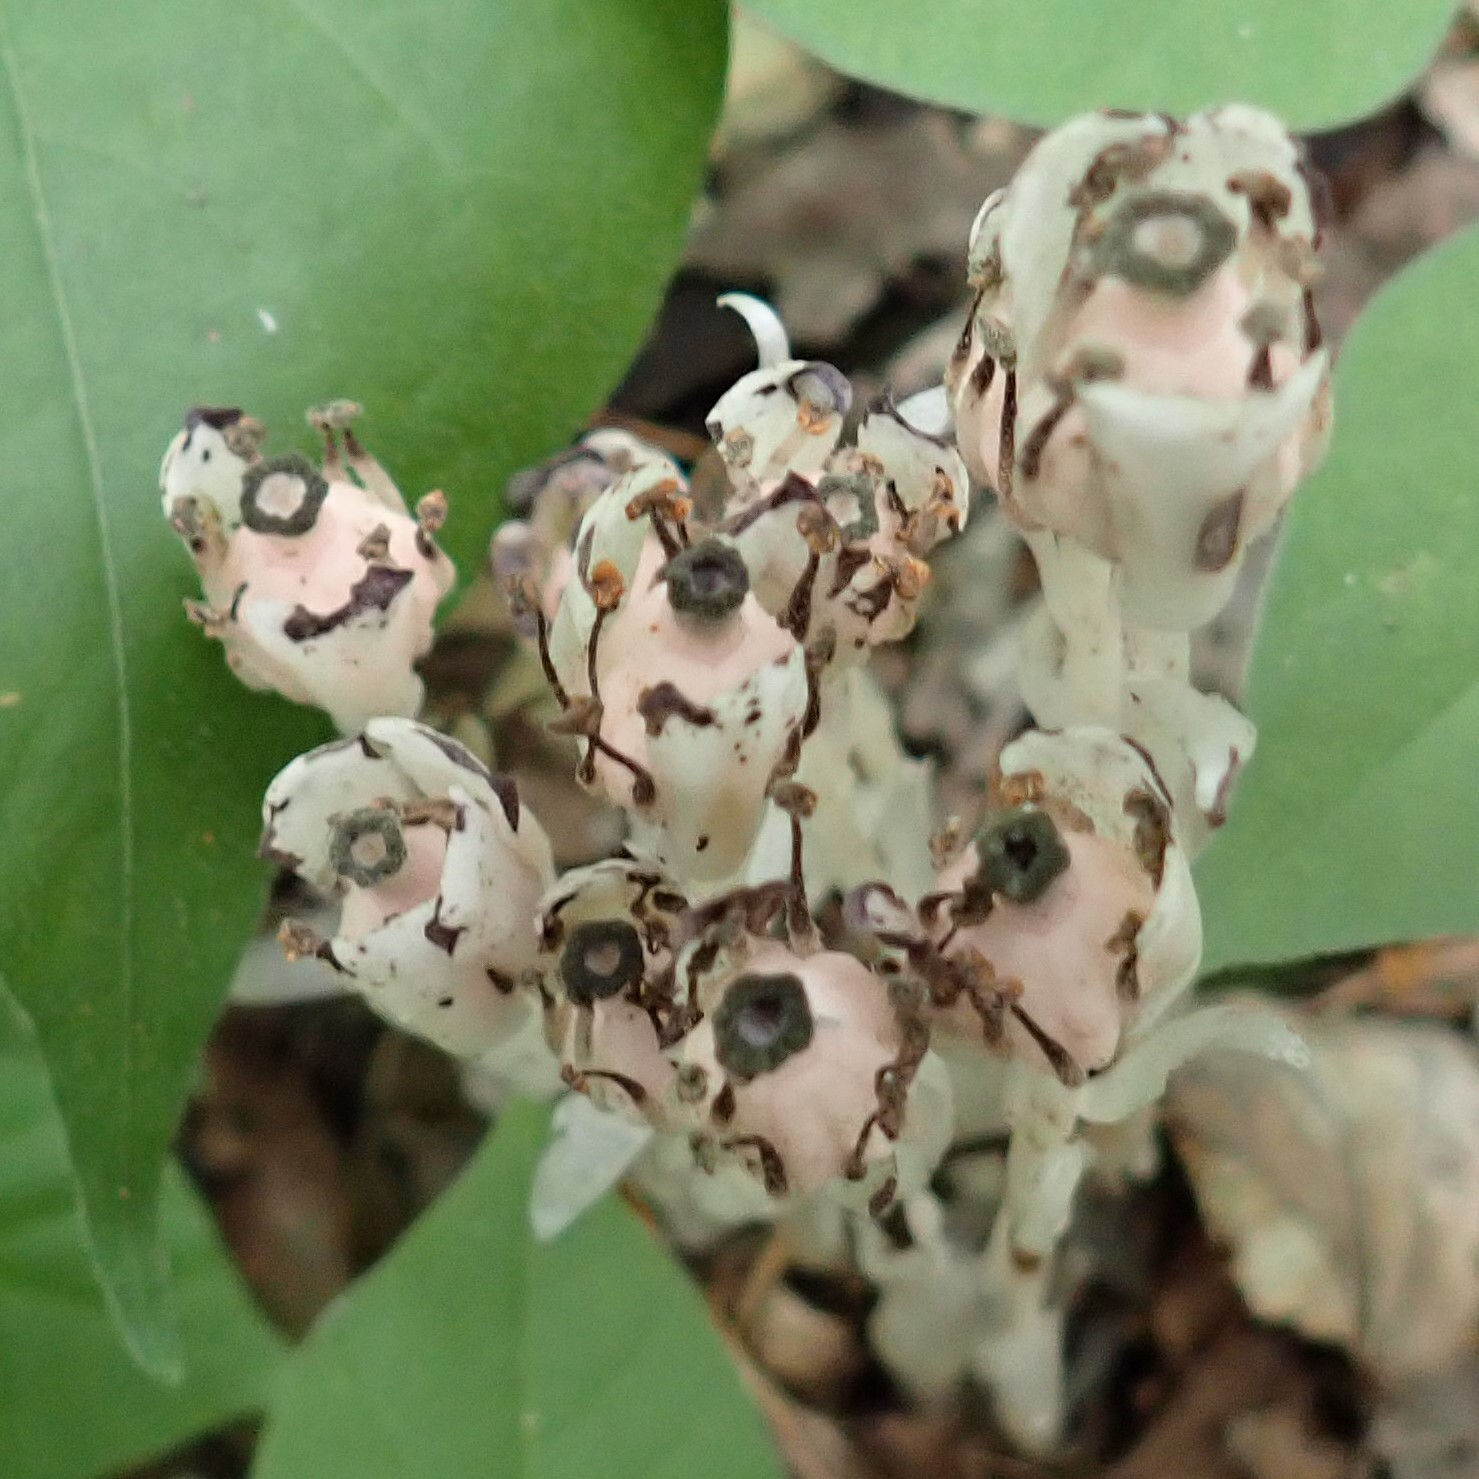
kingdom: Plantae
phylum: Tracheophyta
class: Magnoliopsida
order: Ericales
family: Ericaceae
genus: Monotropa
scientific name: Monotropa uniflora
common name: Convulsion root
